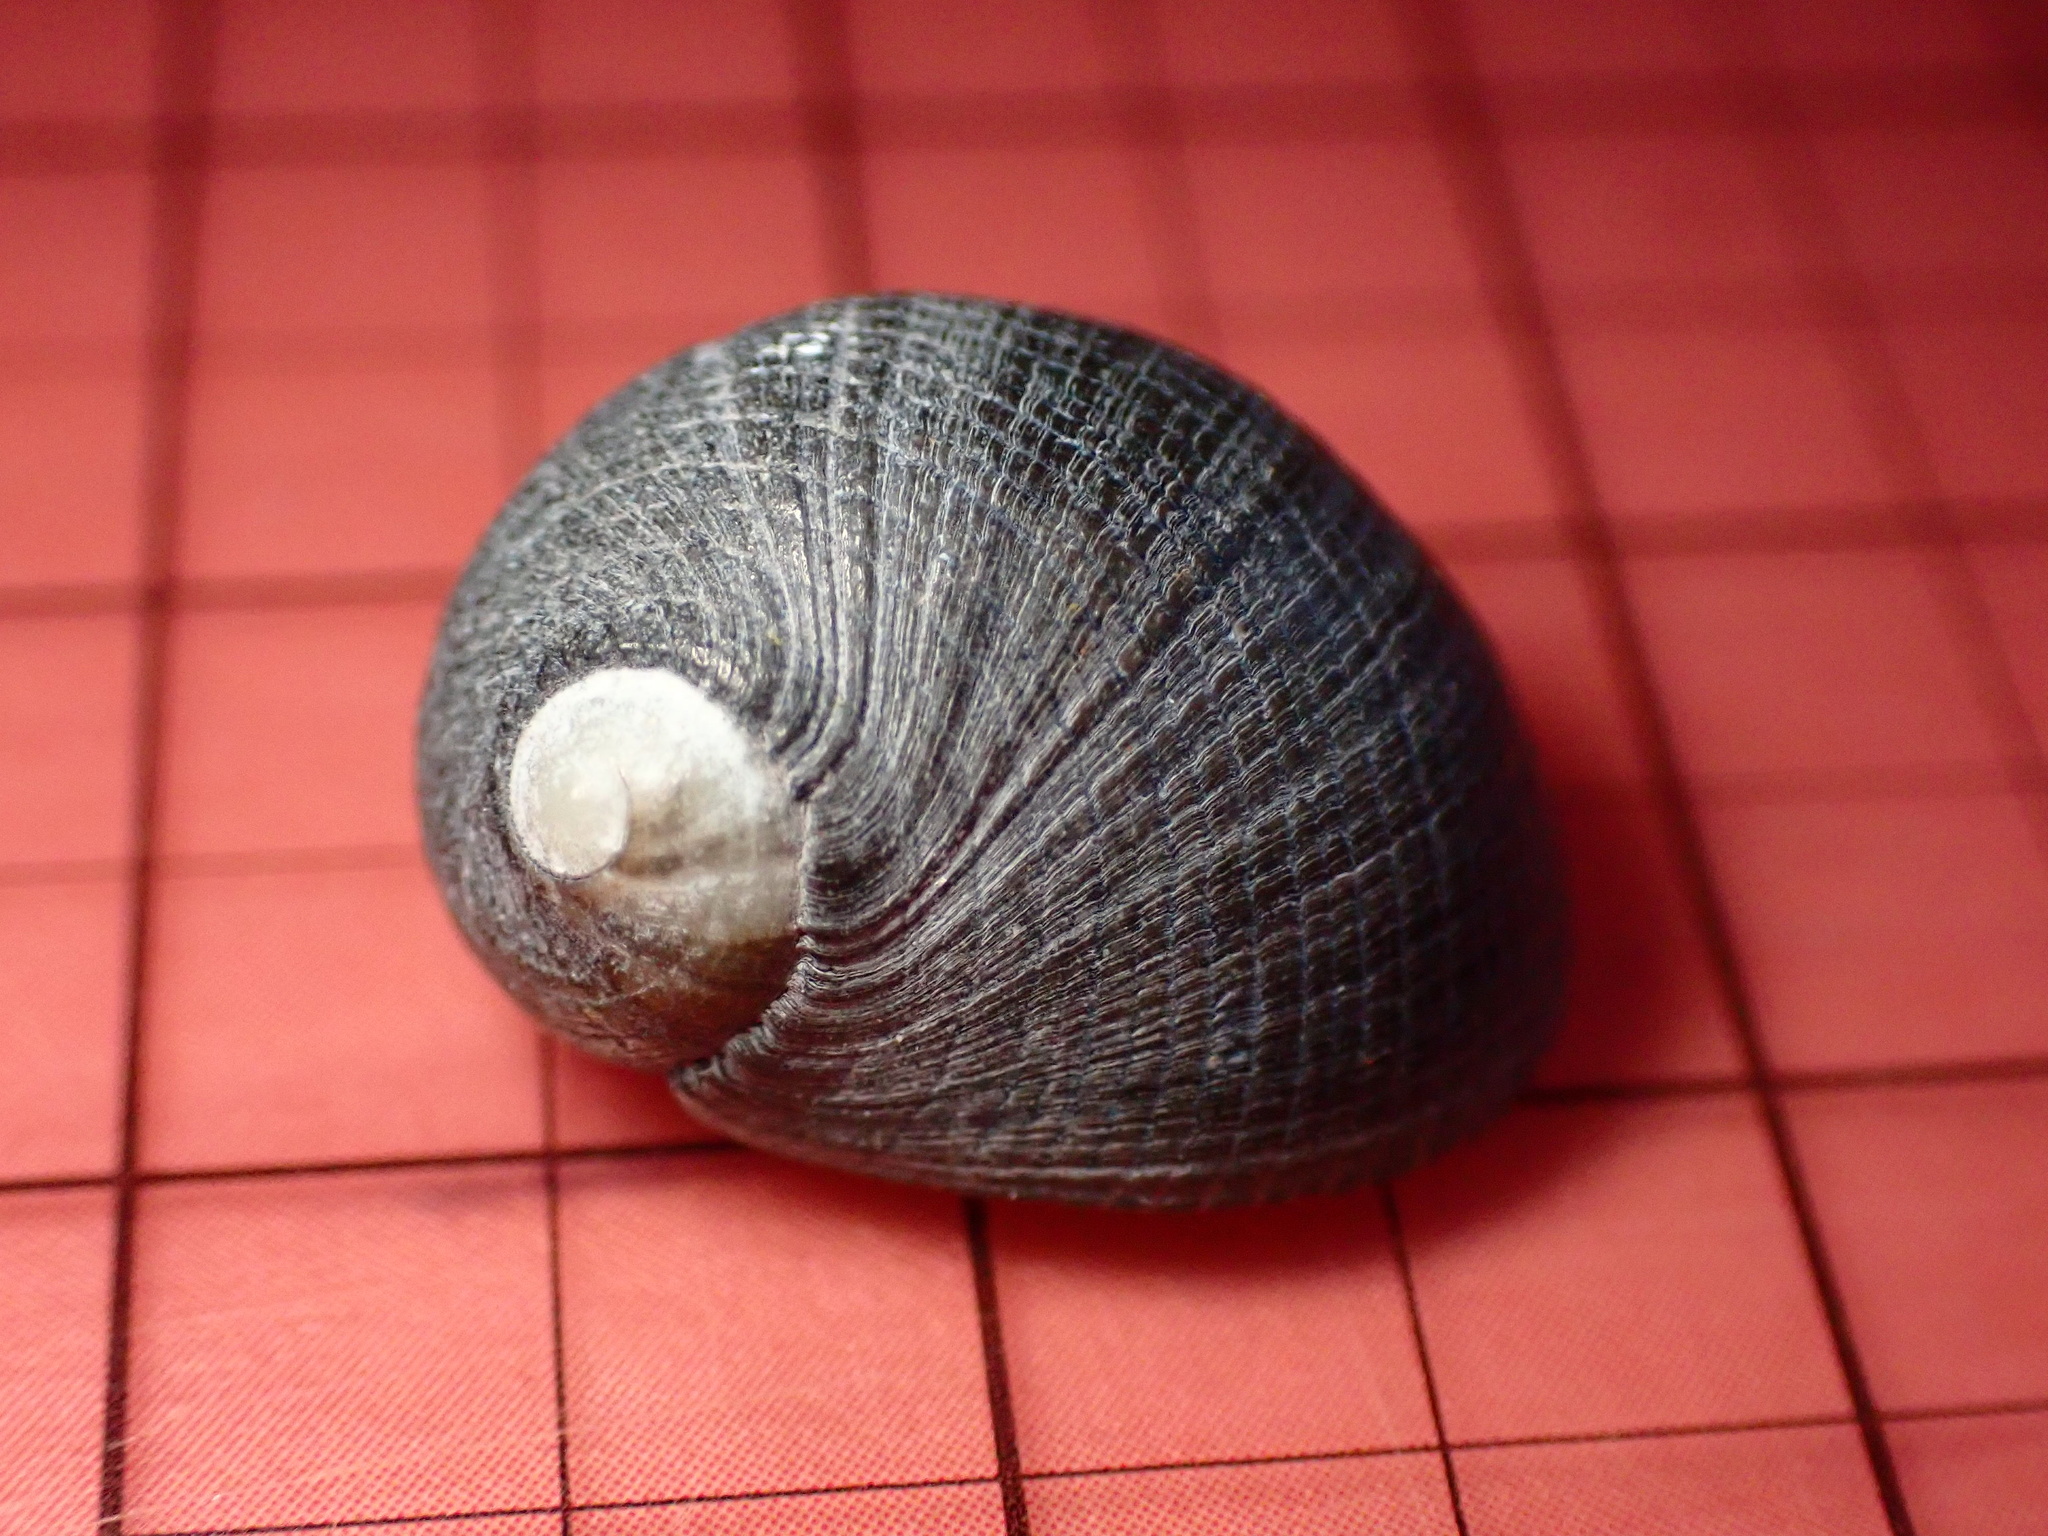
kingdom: Animalia
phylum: Mollusca
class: Gastropoda
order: Cycloneritida
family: Neritidae
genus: Nerita
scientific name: Nerita picea
